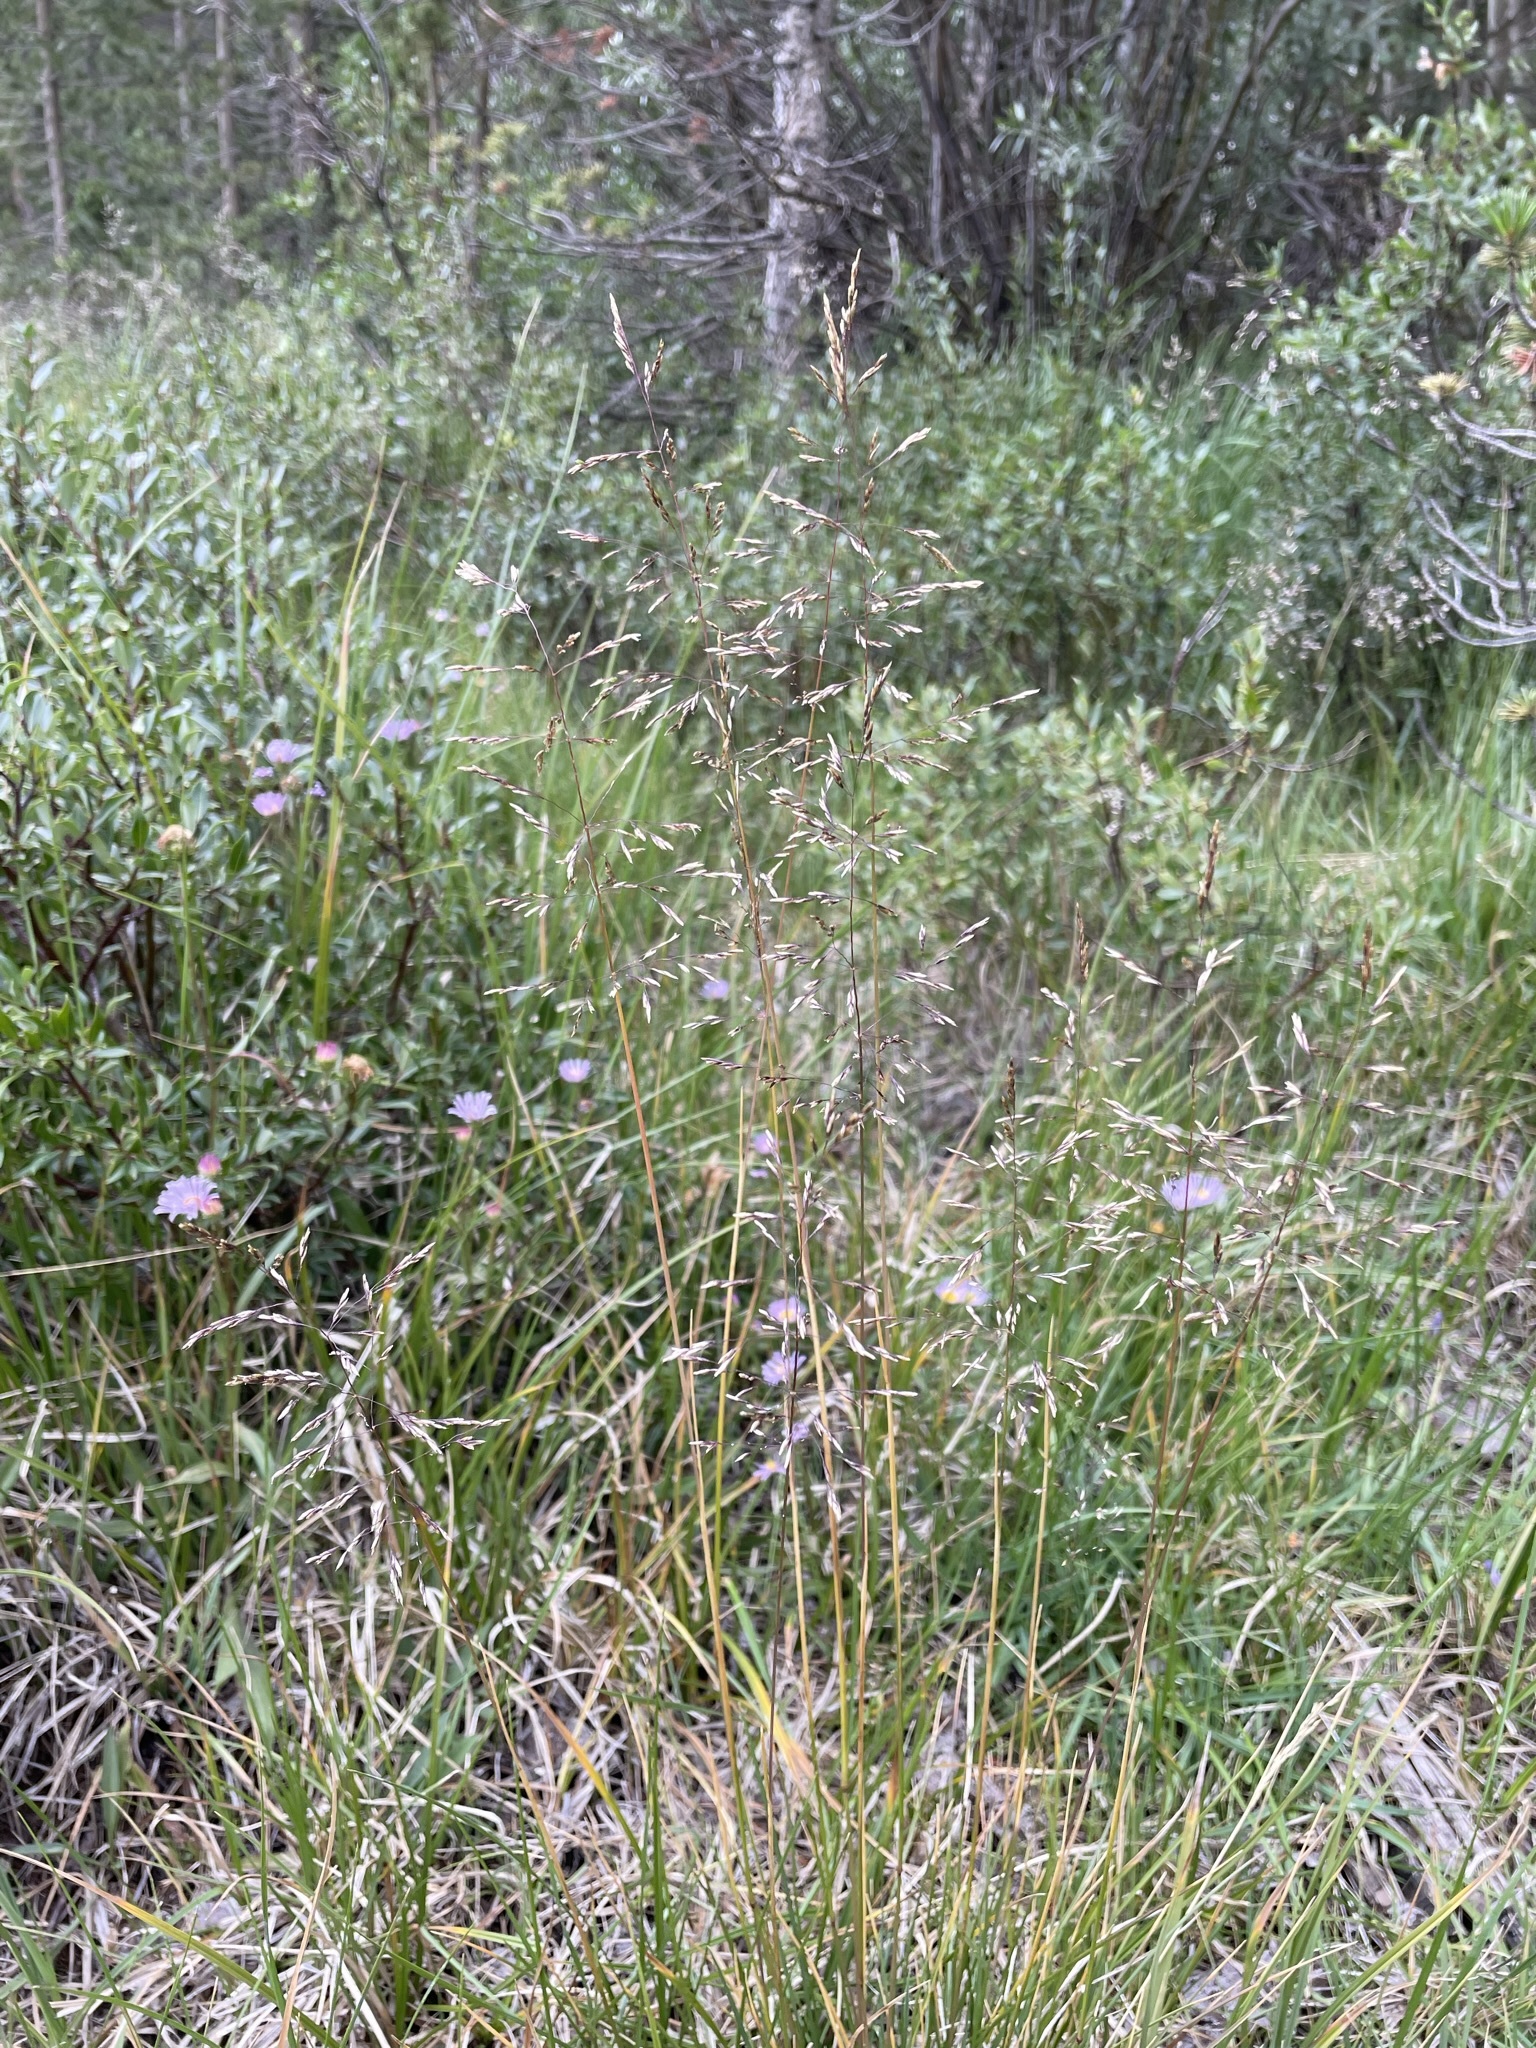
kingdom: Plantae
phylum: Tracheophyta
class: Liliopsida
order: Poales
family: Poaceae
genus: Deschampsia
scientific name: Deschampsia cespitosa
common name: Tufted hair-grass
